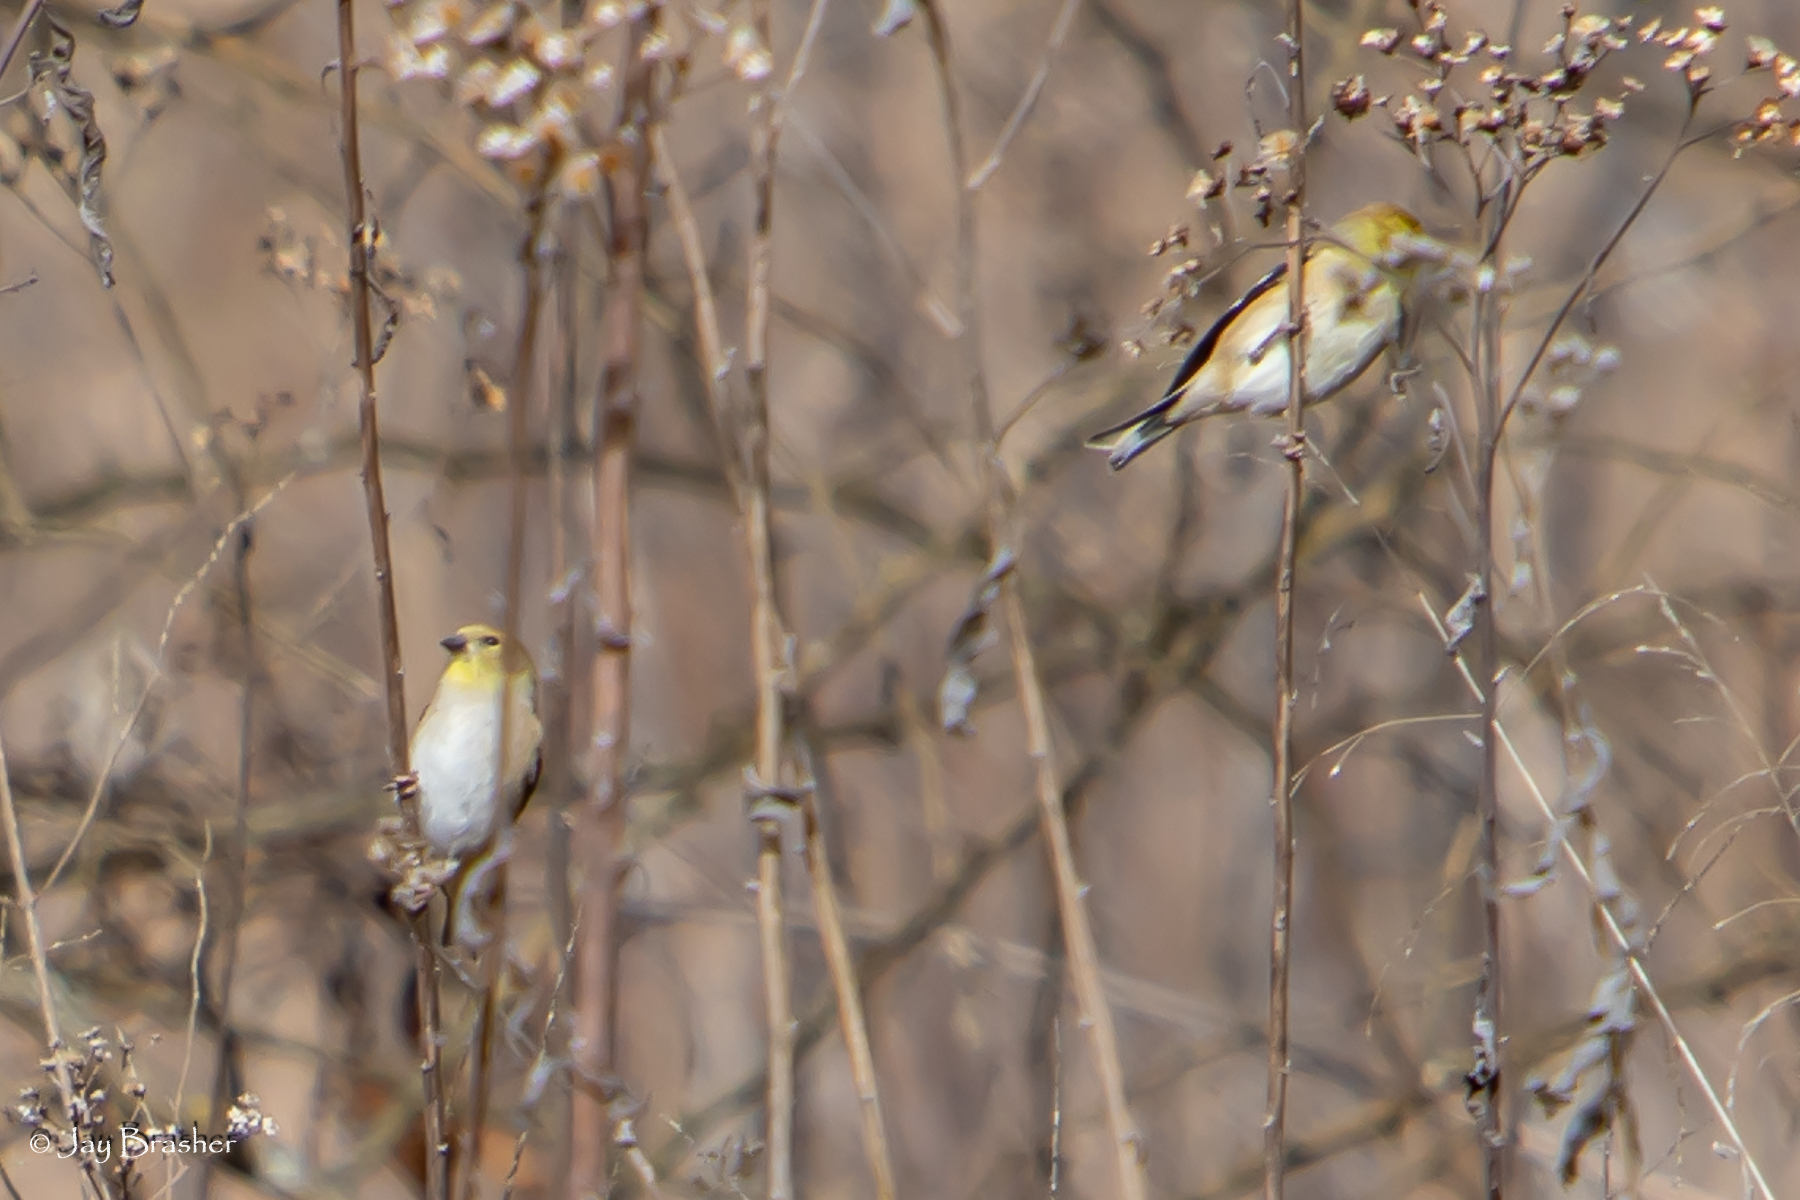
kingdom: Animalia
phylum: Chordata
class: Aves
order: Passeriformes
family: Fringillidae
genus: Spinus
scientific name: Spinus tristis
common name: American goldfinch
